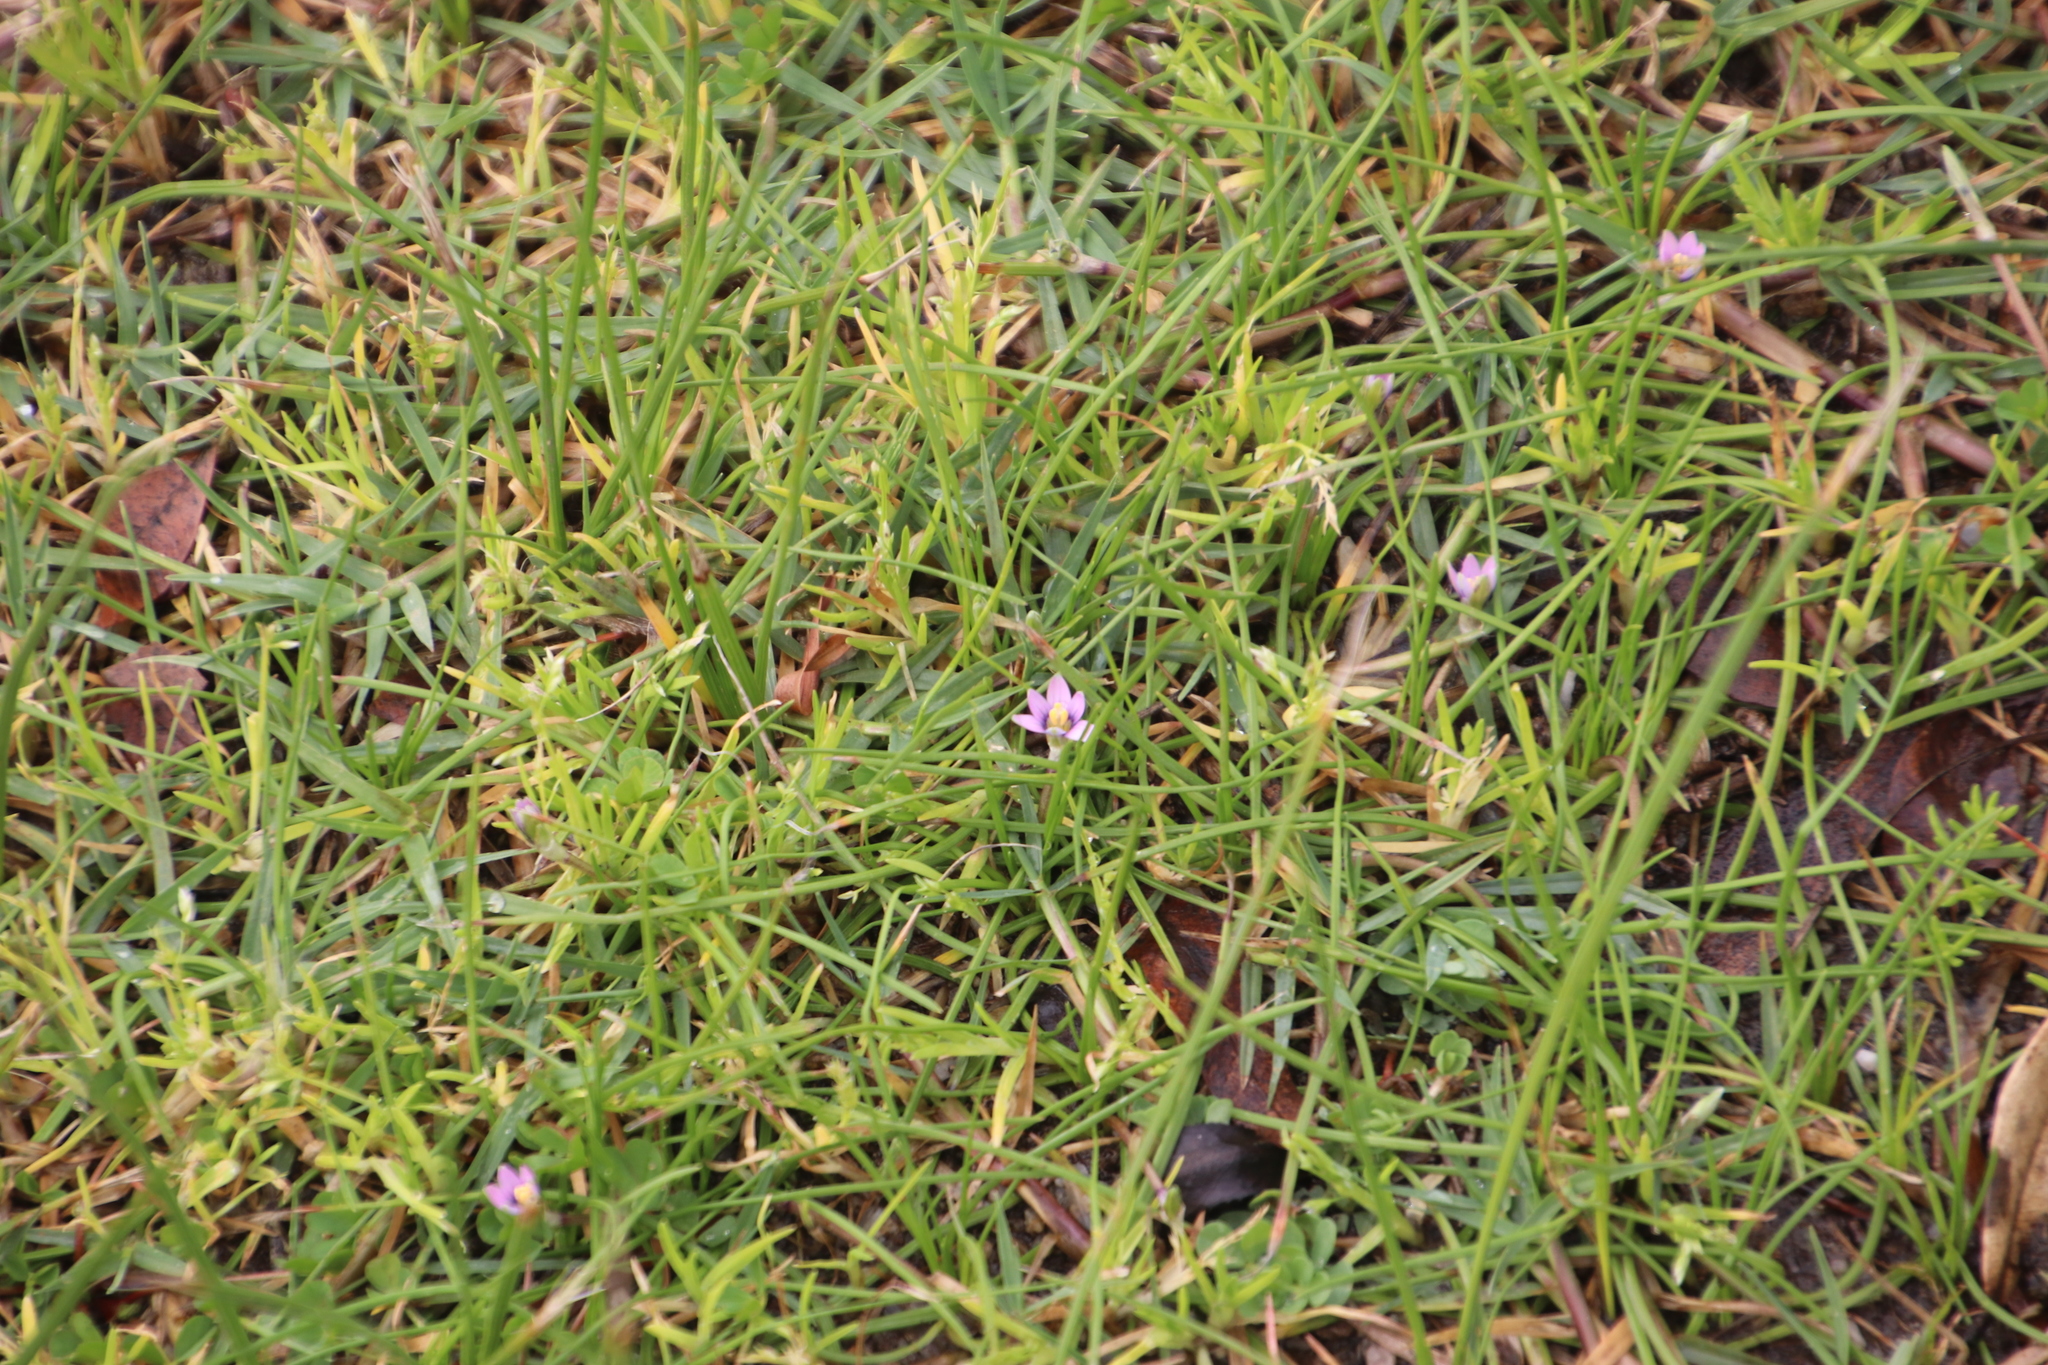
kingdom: Plantae
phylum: Tracheophyta
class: Liliopsida
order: Asparagales
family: Iridaceae
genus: Romulea
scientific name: Romulea rosea
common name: Oniongrass
